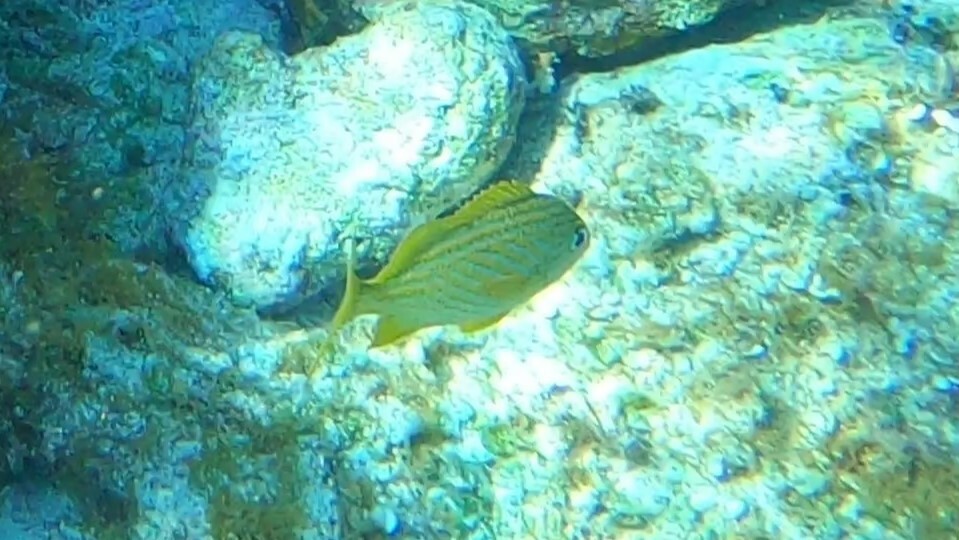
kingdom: Animalia
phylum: Chordata
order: Perciformes
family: Haemulidae
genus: Haemulon
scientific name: Haemulon flavolineatum
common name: French grunt
